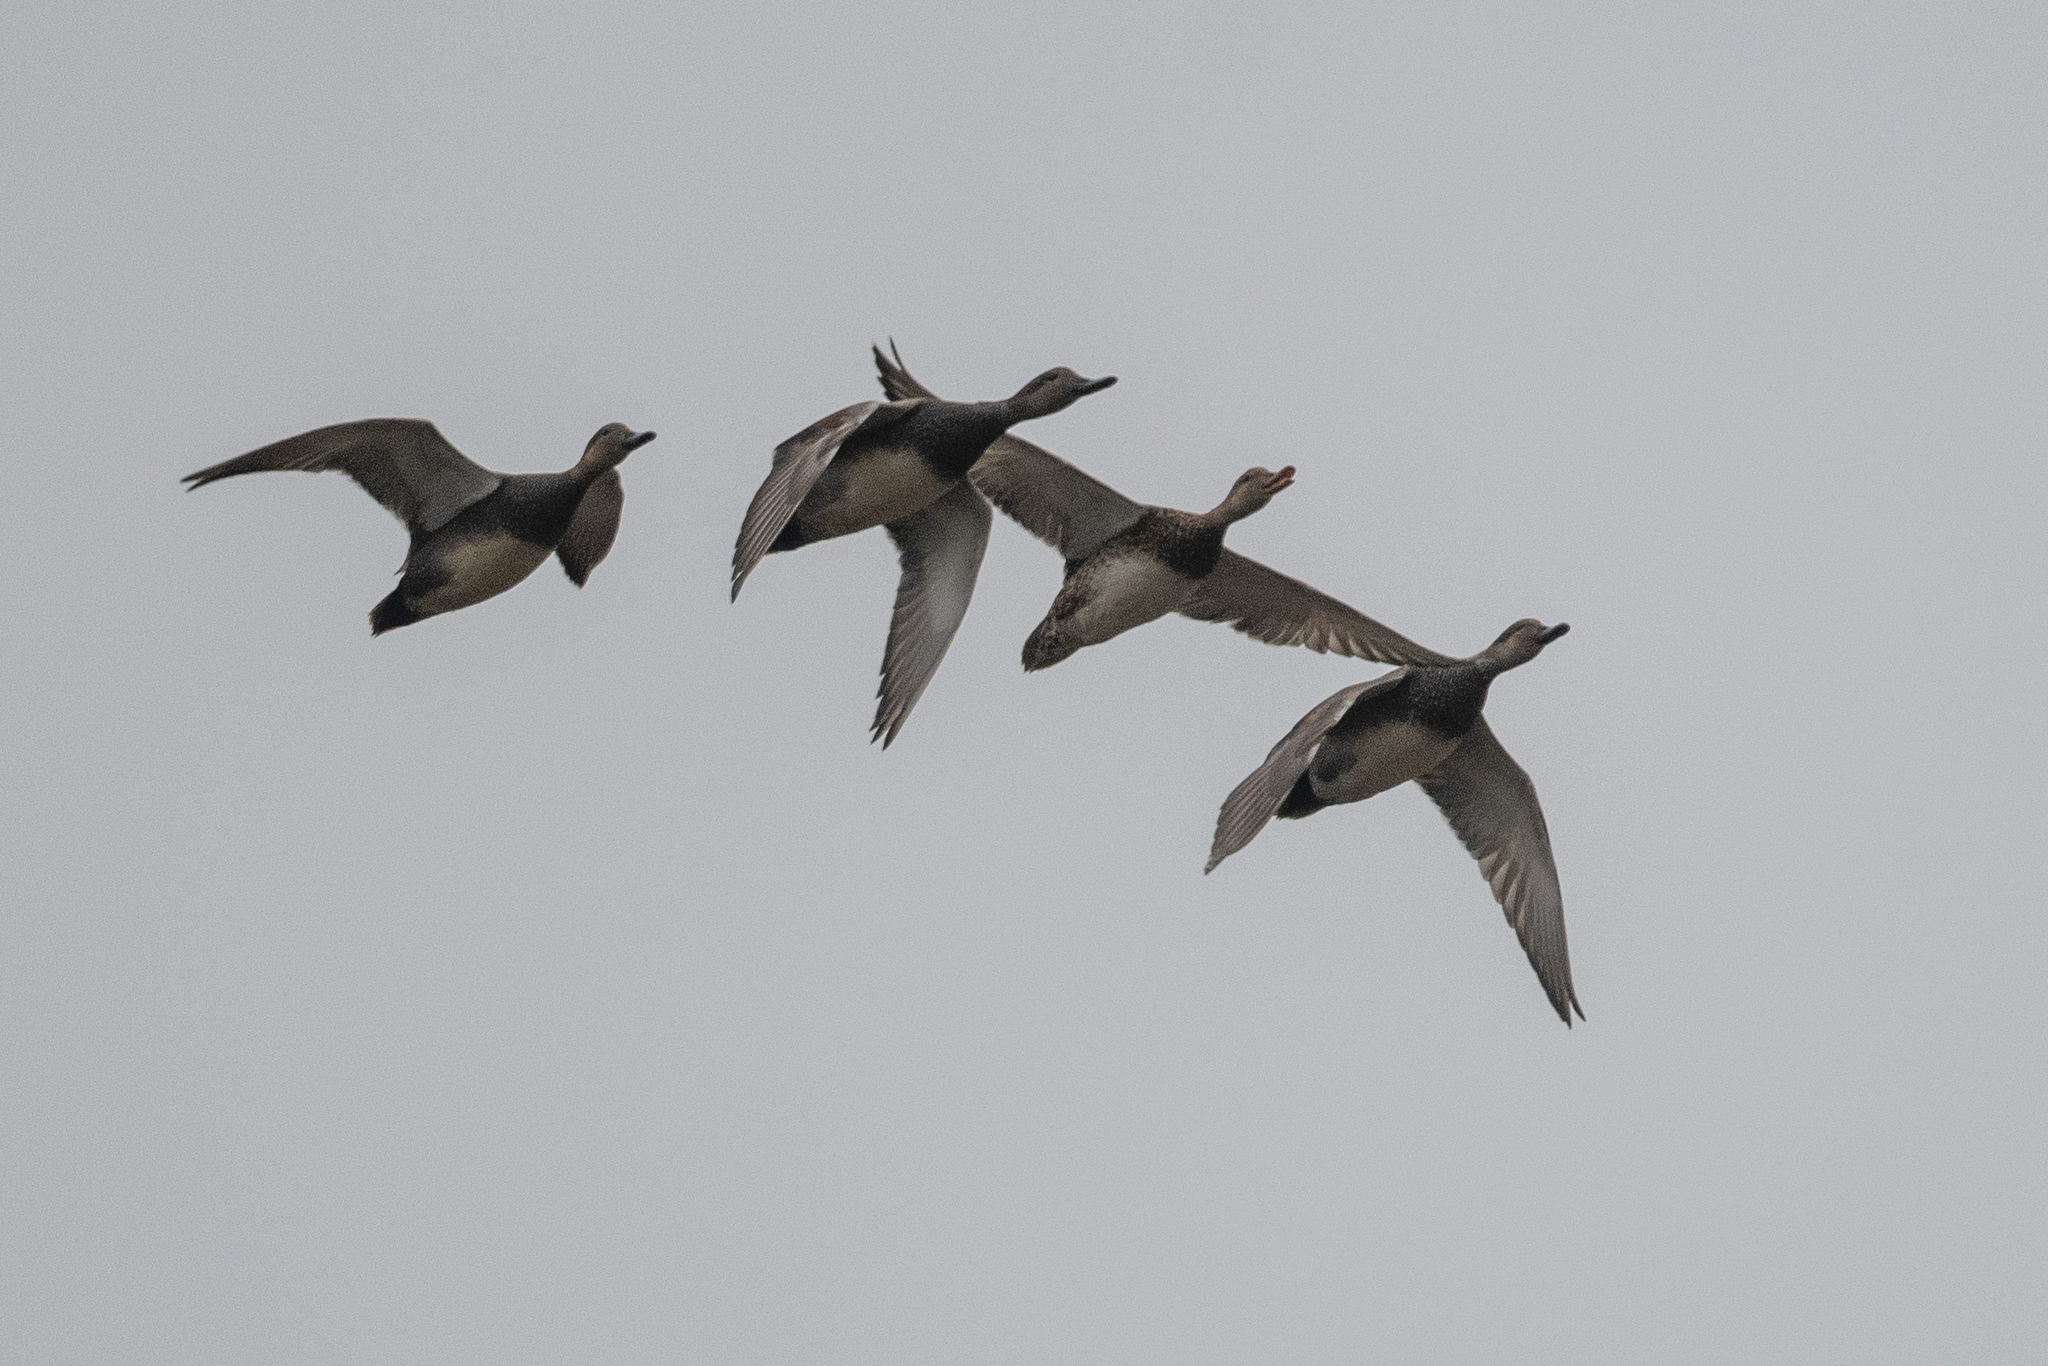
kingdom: Animalia
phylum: Chordata
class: Aves
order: Anseriformes
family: Anatidae
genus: Mareca
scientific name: Mareca strepera
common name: Gadwall
